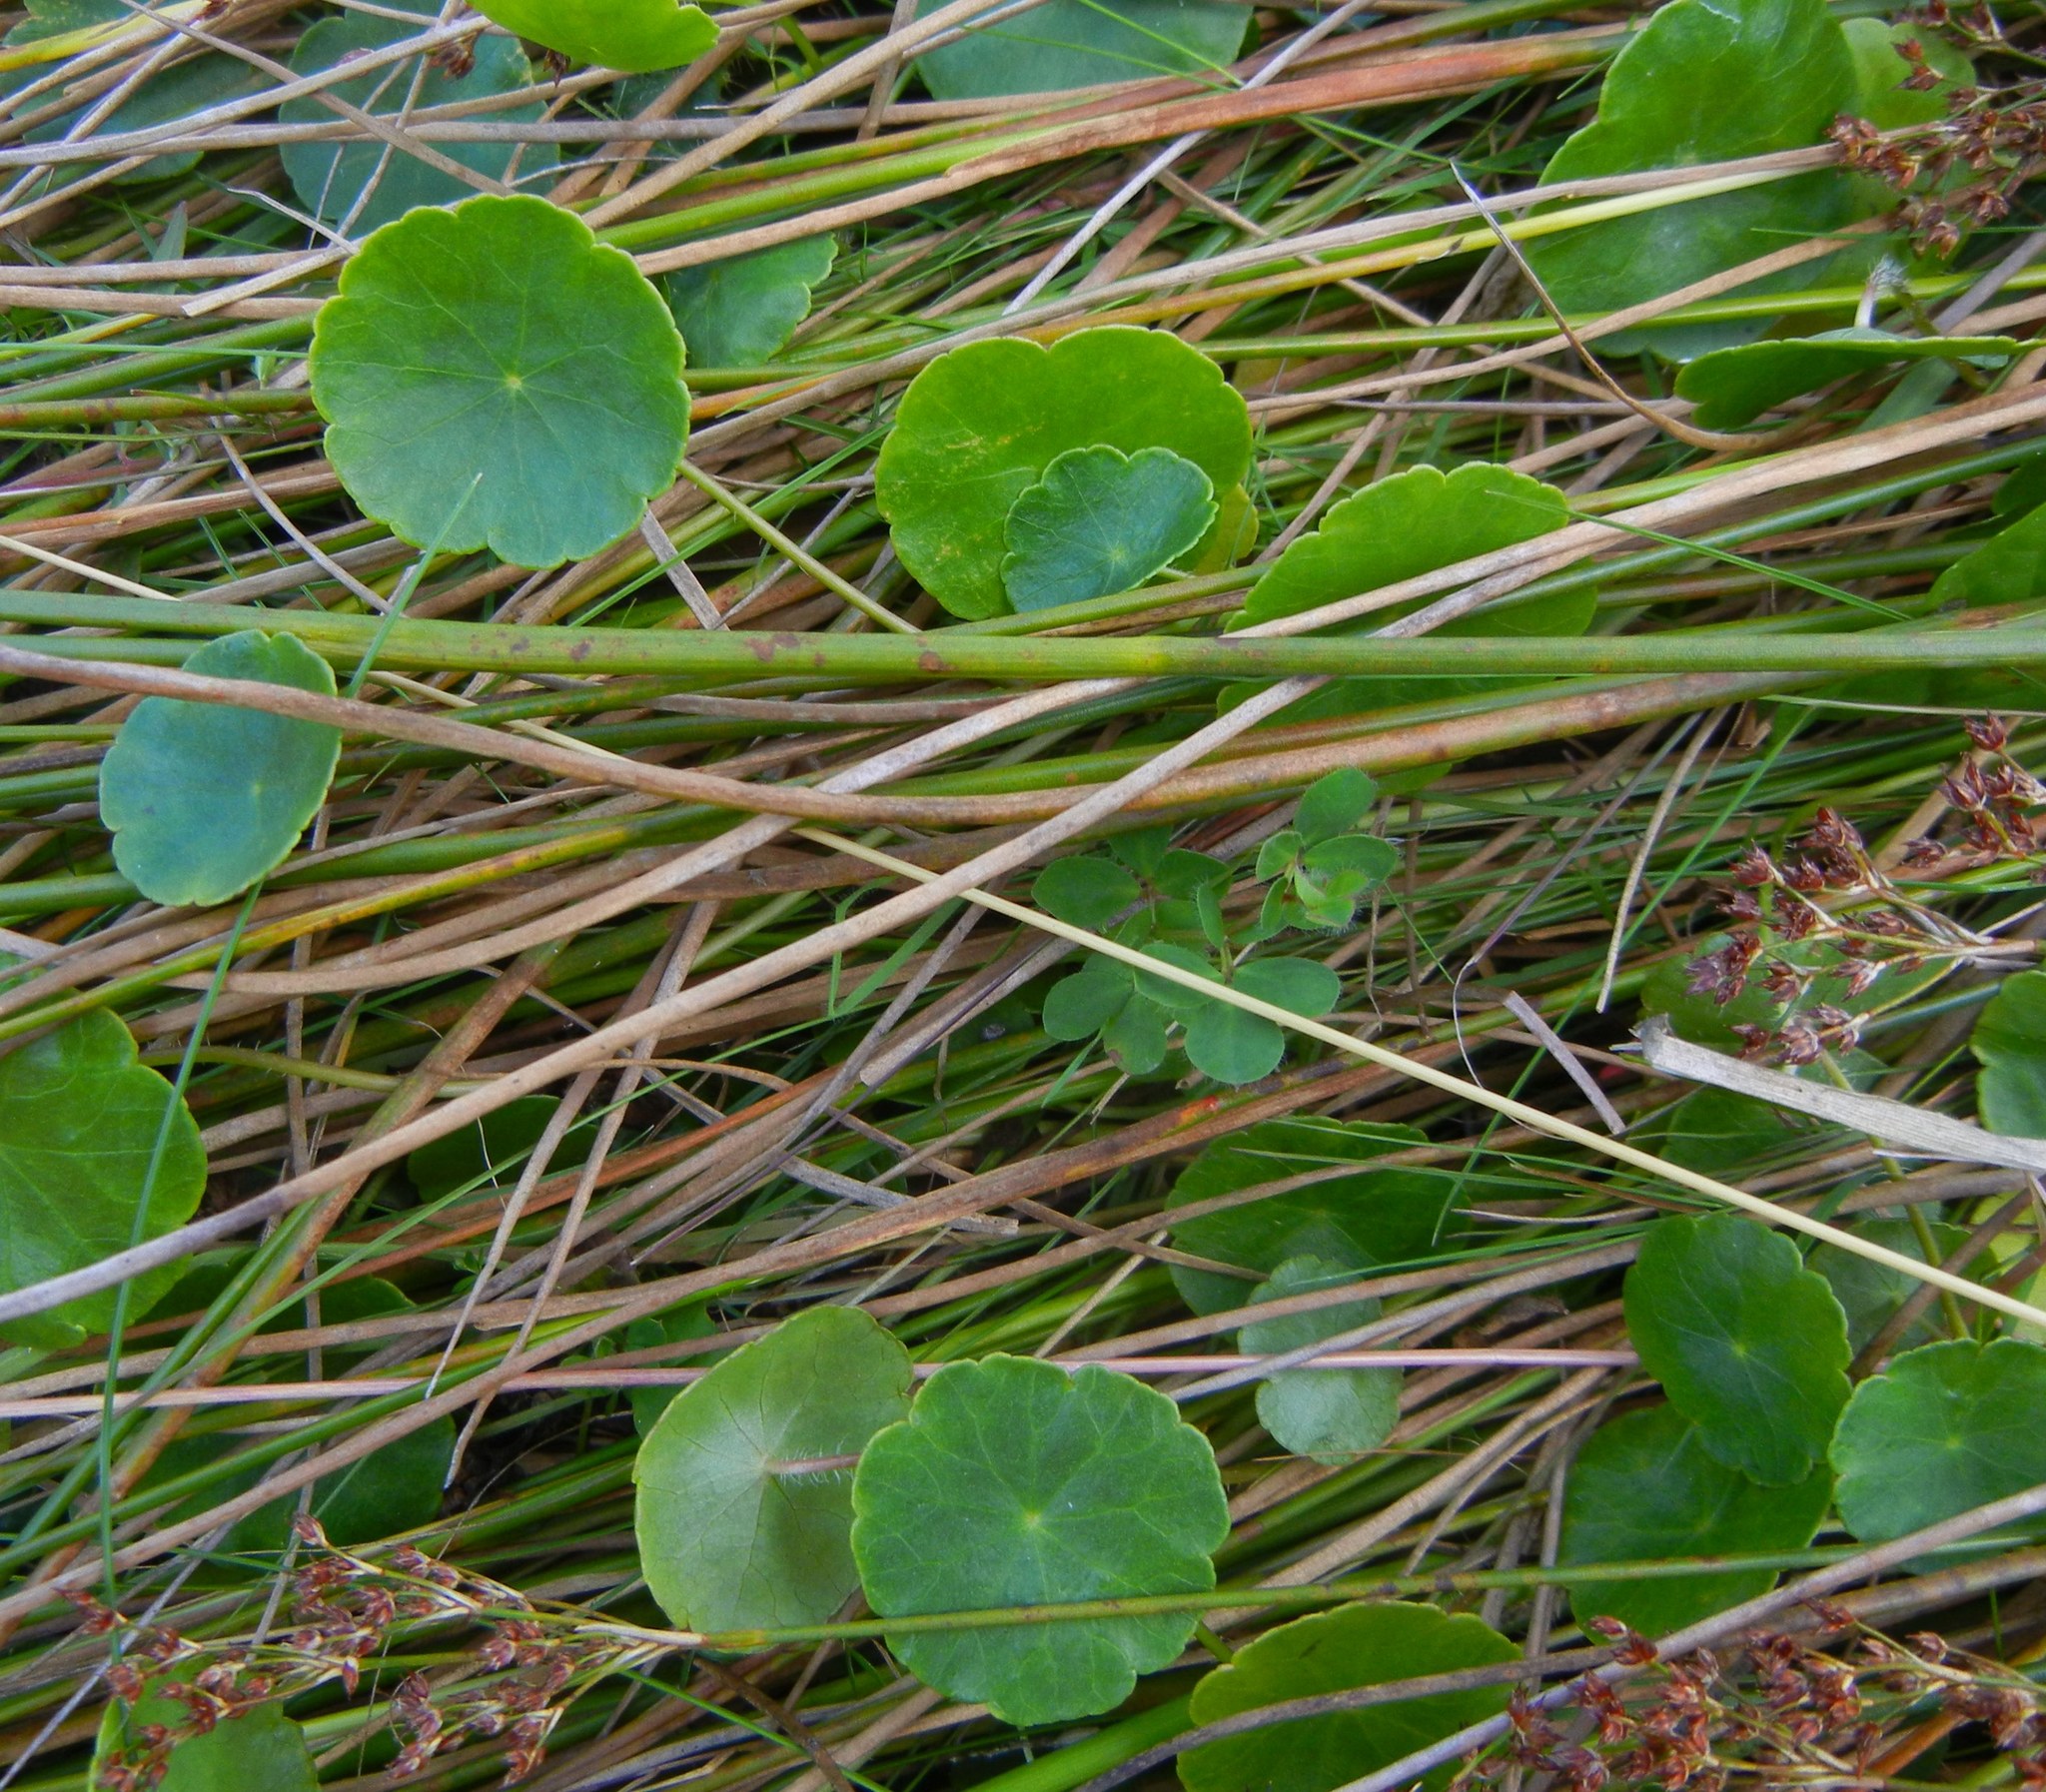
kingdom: Plantae
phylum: Tracheophyta
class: Magnoliopsida
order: Apiales
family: Araliaceae
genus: Hydrocotyle
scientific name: Hydrocotyle vulgaris
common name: Marsh pennywort
